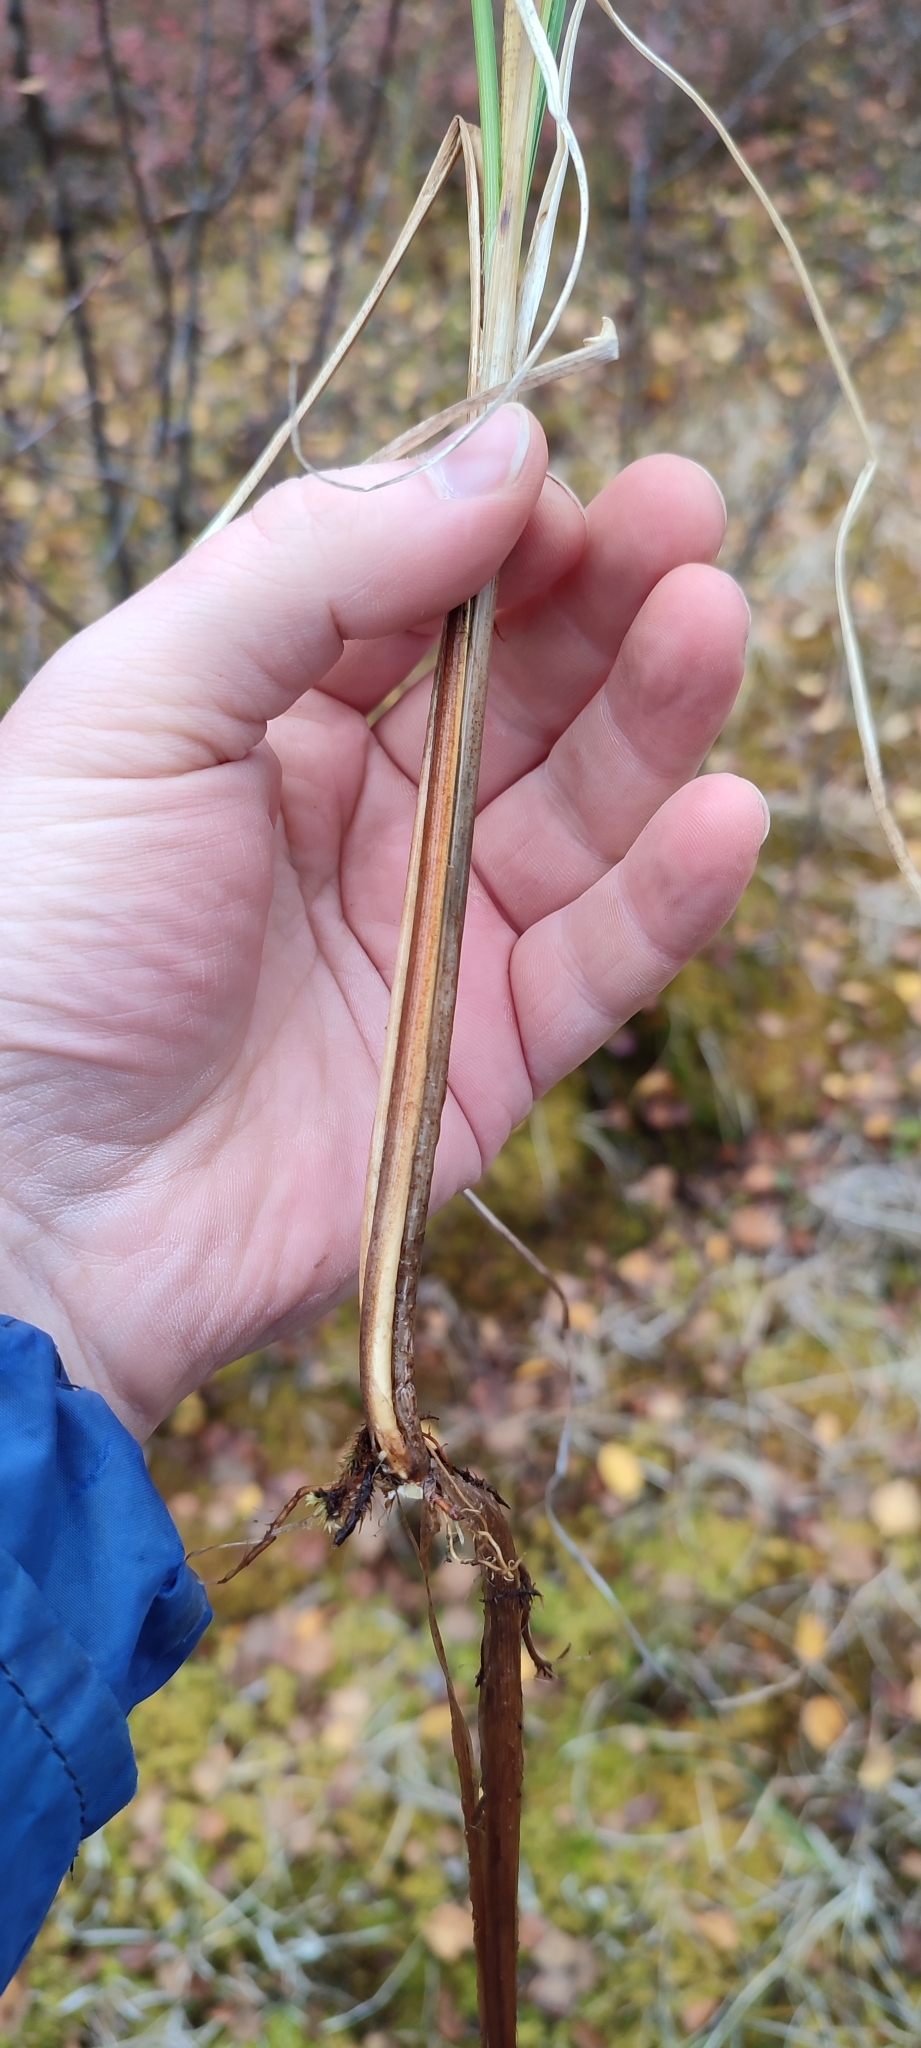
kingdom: Plantae
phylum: Tracheophyta
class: Liliopsida
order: Poales
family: Cyperaceae
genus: Carex
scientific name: Carex rostrata
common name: Bottle sedge
